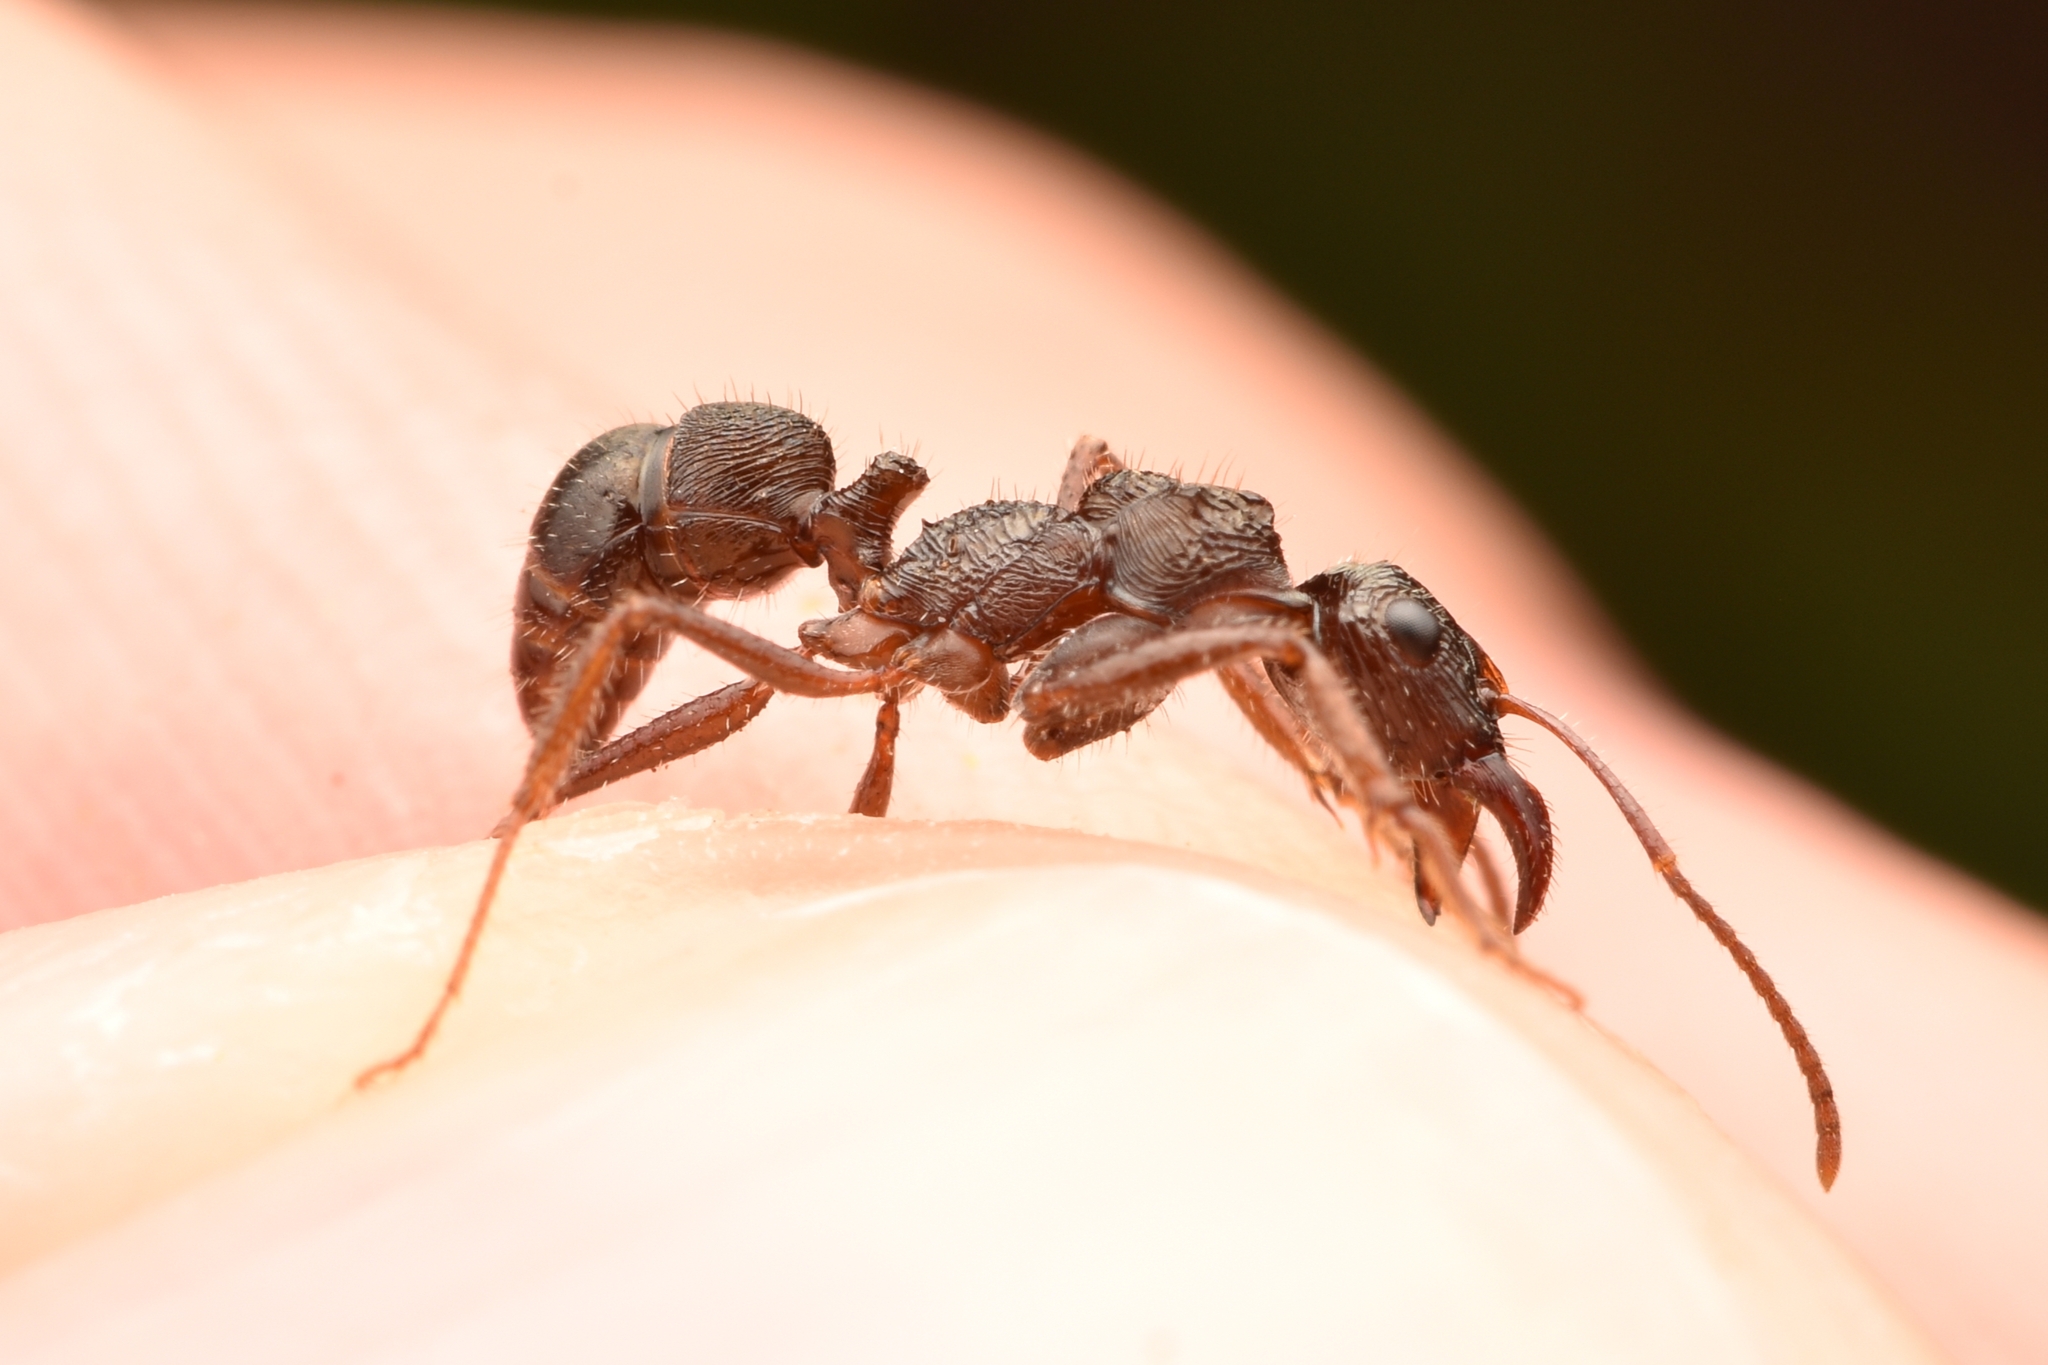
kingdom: Animalia
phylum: Arthropoda
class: Insecta
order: Hymenoptera
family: Formicidae
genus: Ectatomma
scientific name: Ectatomma ruidum
